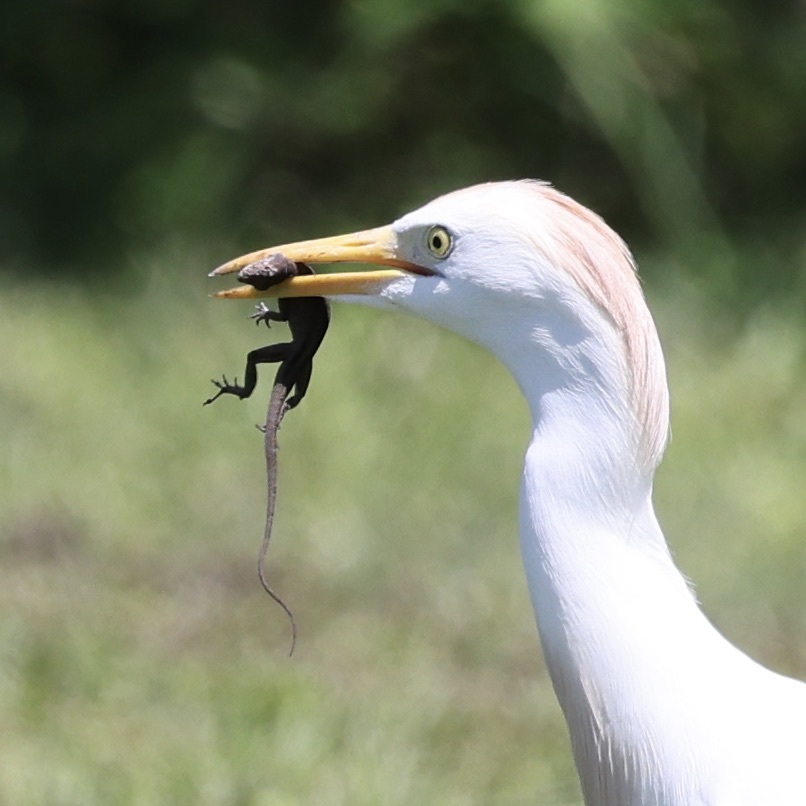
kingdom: Animalia
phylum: Chordata
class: Squamata
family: Dactyloidae
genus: Anolis
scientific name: Anolis sagrei
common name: Brown anole
